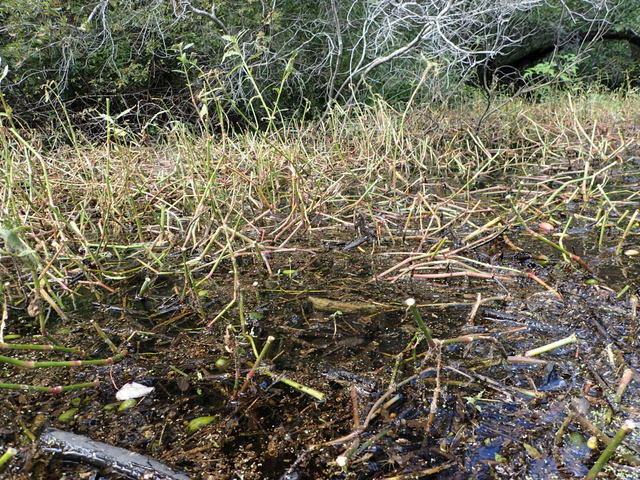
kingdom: Plantae
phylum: Tracheophyta
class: Magnoliopsida
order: Caryophyllales
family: Amaranthaceae
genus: Alternanthera
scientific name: Alternanthera philoxeroides
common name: Alligatorweed
